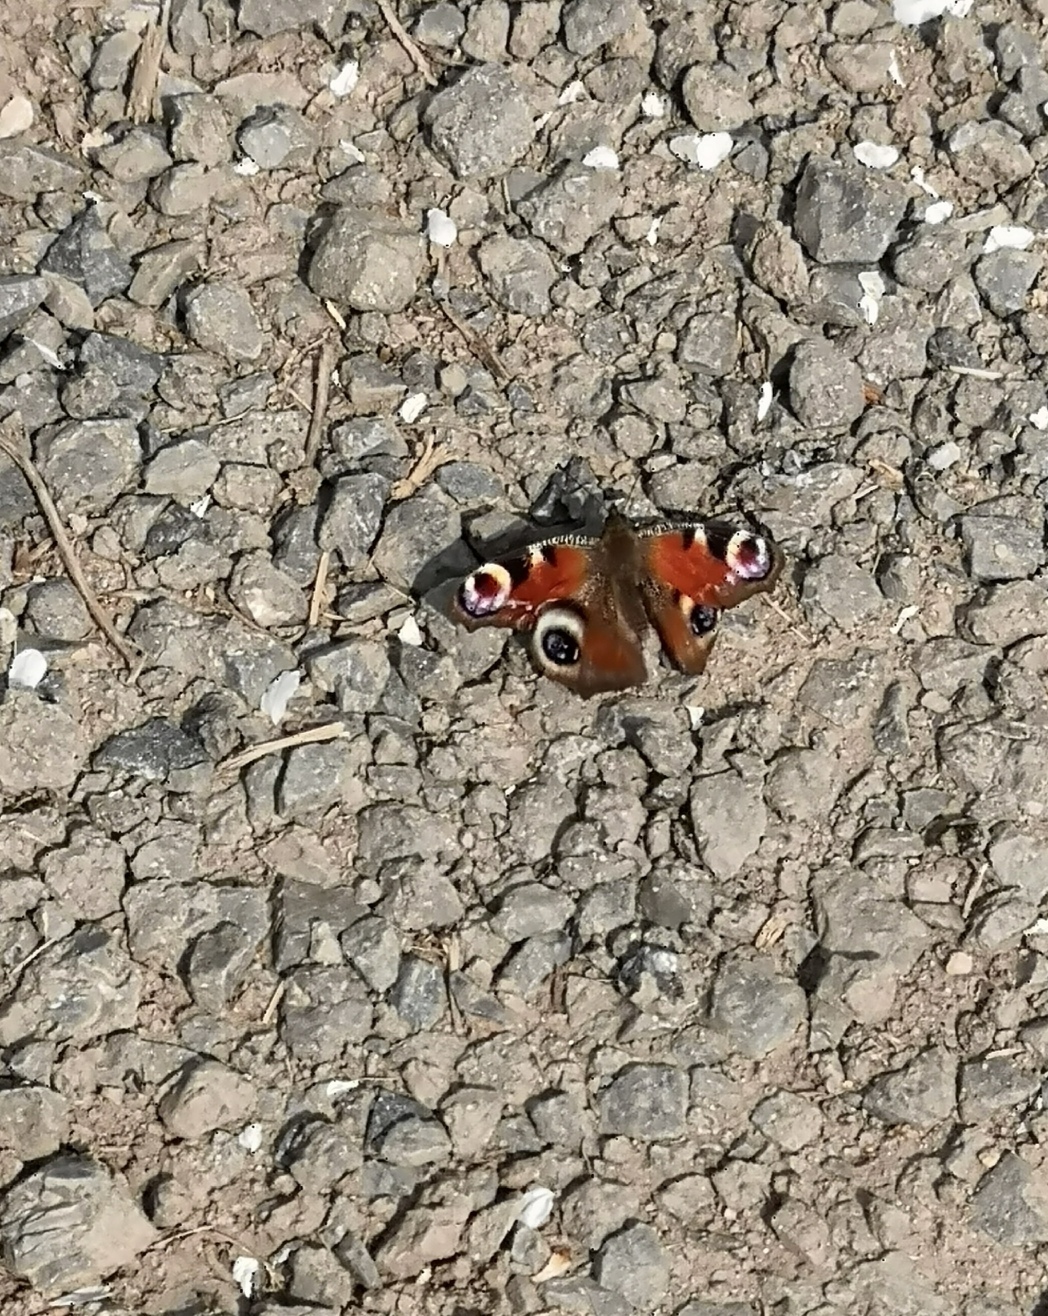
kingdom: Animalia
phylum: Arthropoda
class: Insecta
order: Lepidoptera
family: Nymphalidae
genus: Aglais
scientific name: Aglais io
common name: Peacock
